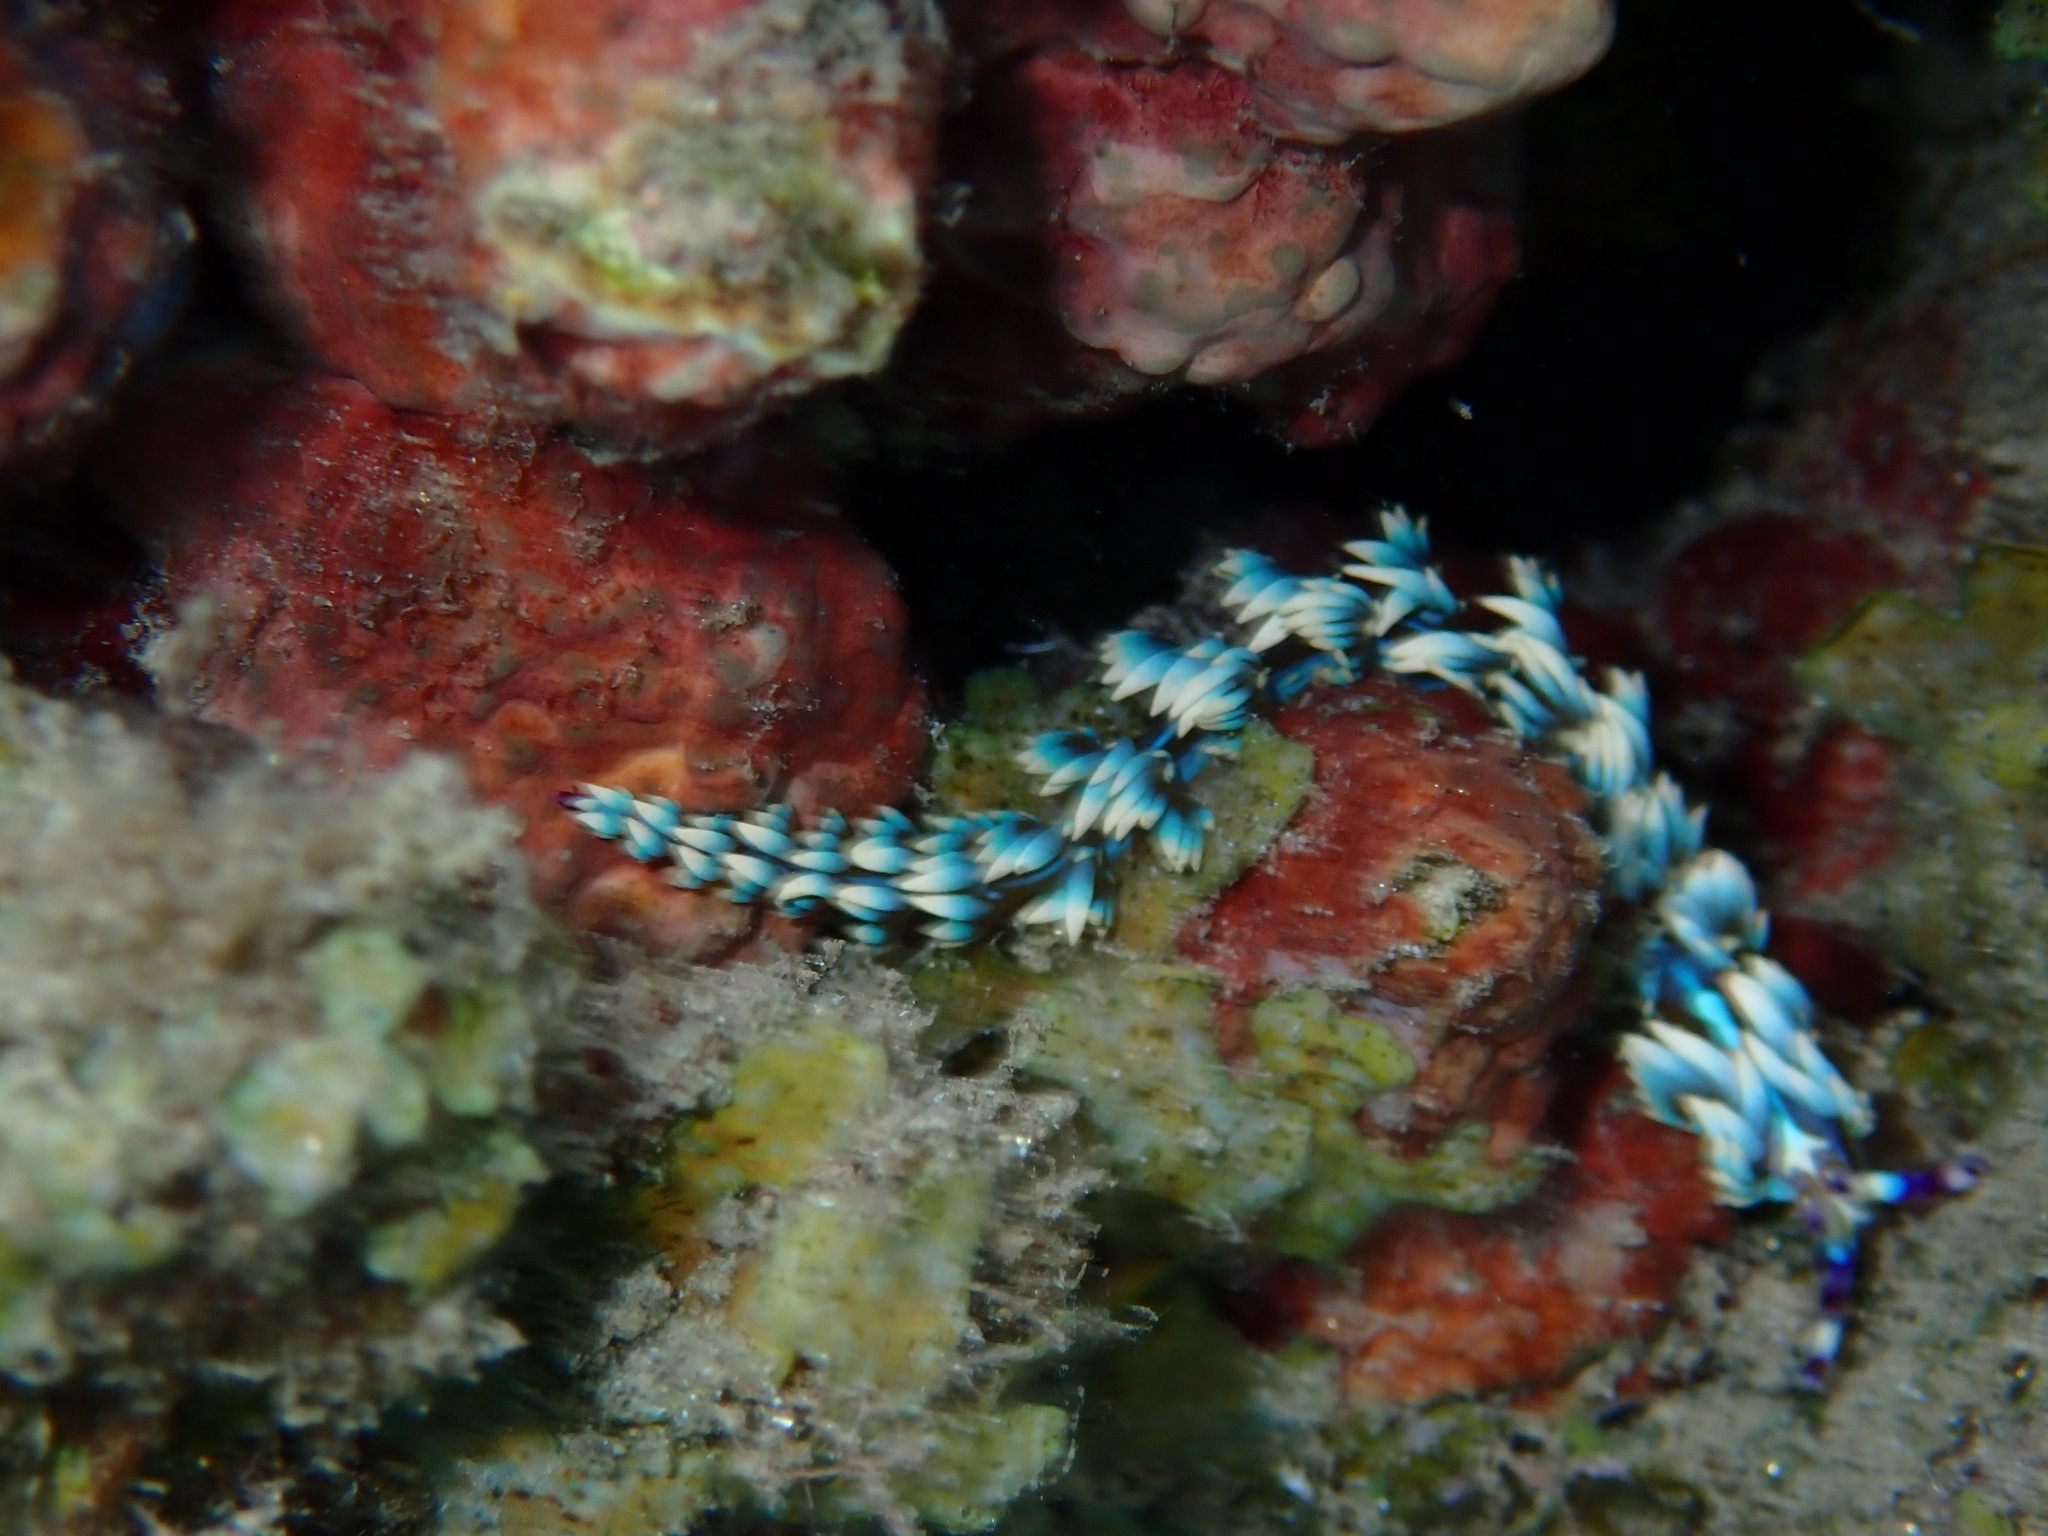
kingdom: Animalia
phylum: Mollusca
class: Gastropoda
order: Nudibranchia
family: Facelinidae
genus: Pteraeolidia
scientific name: Pteraeolidia semperi
